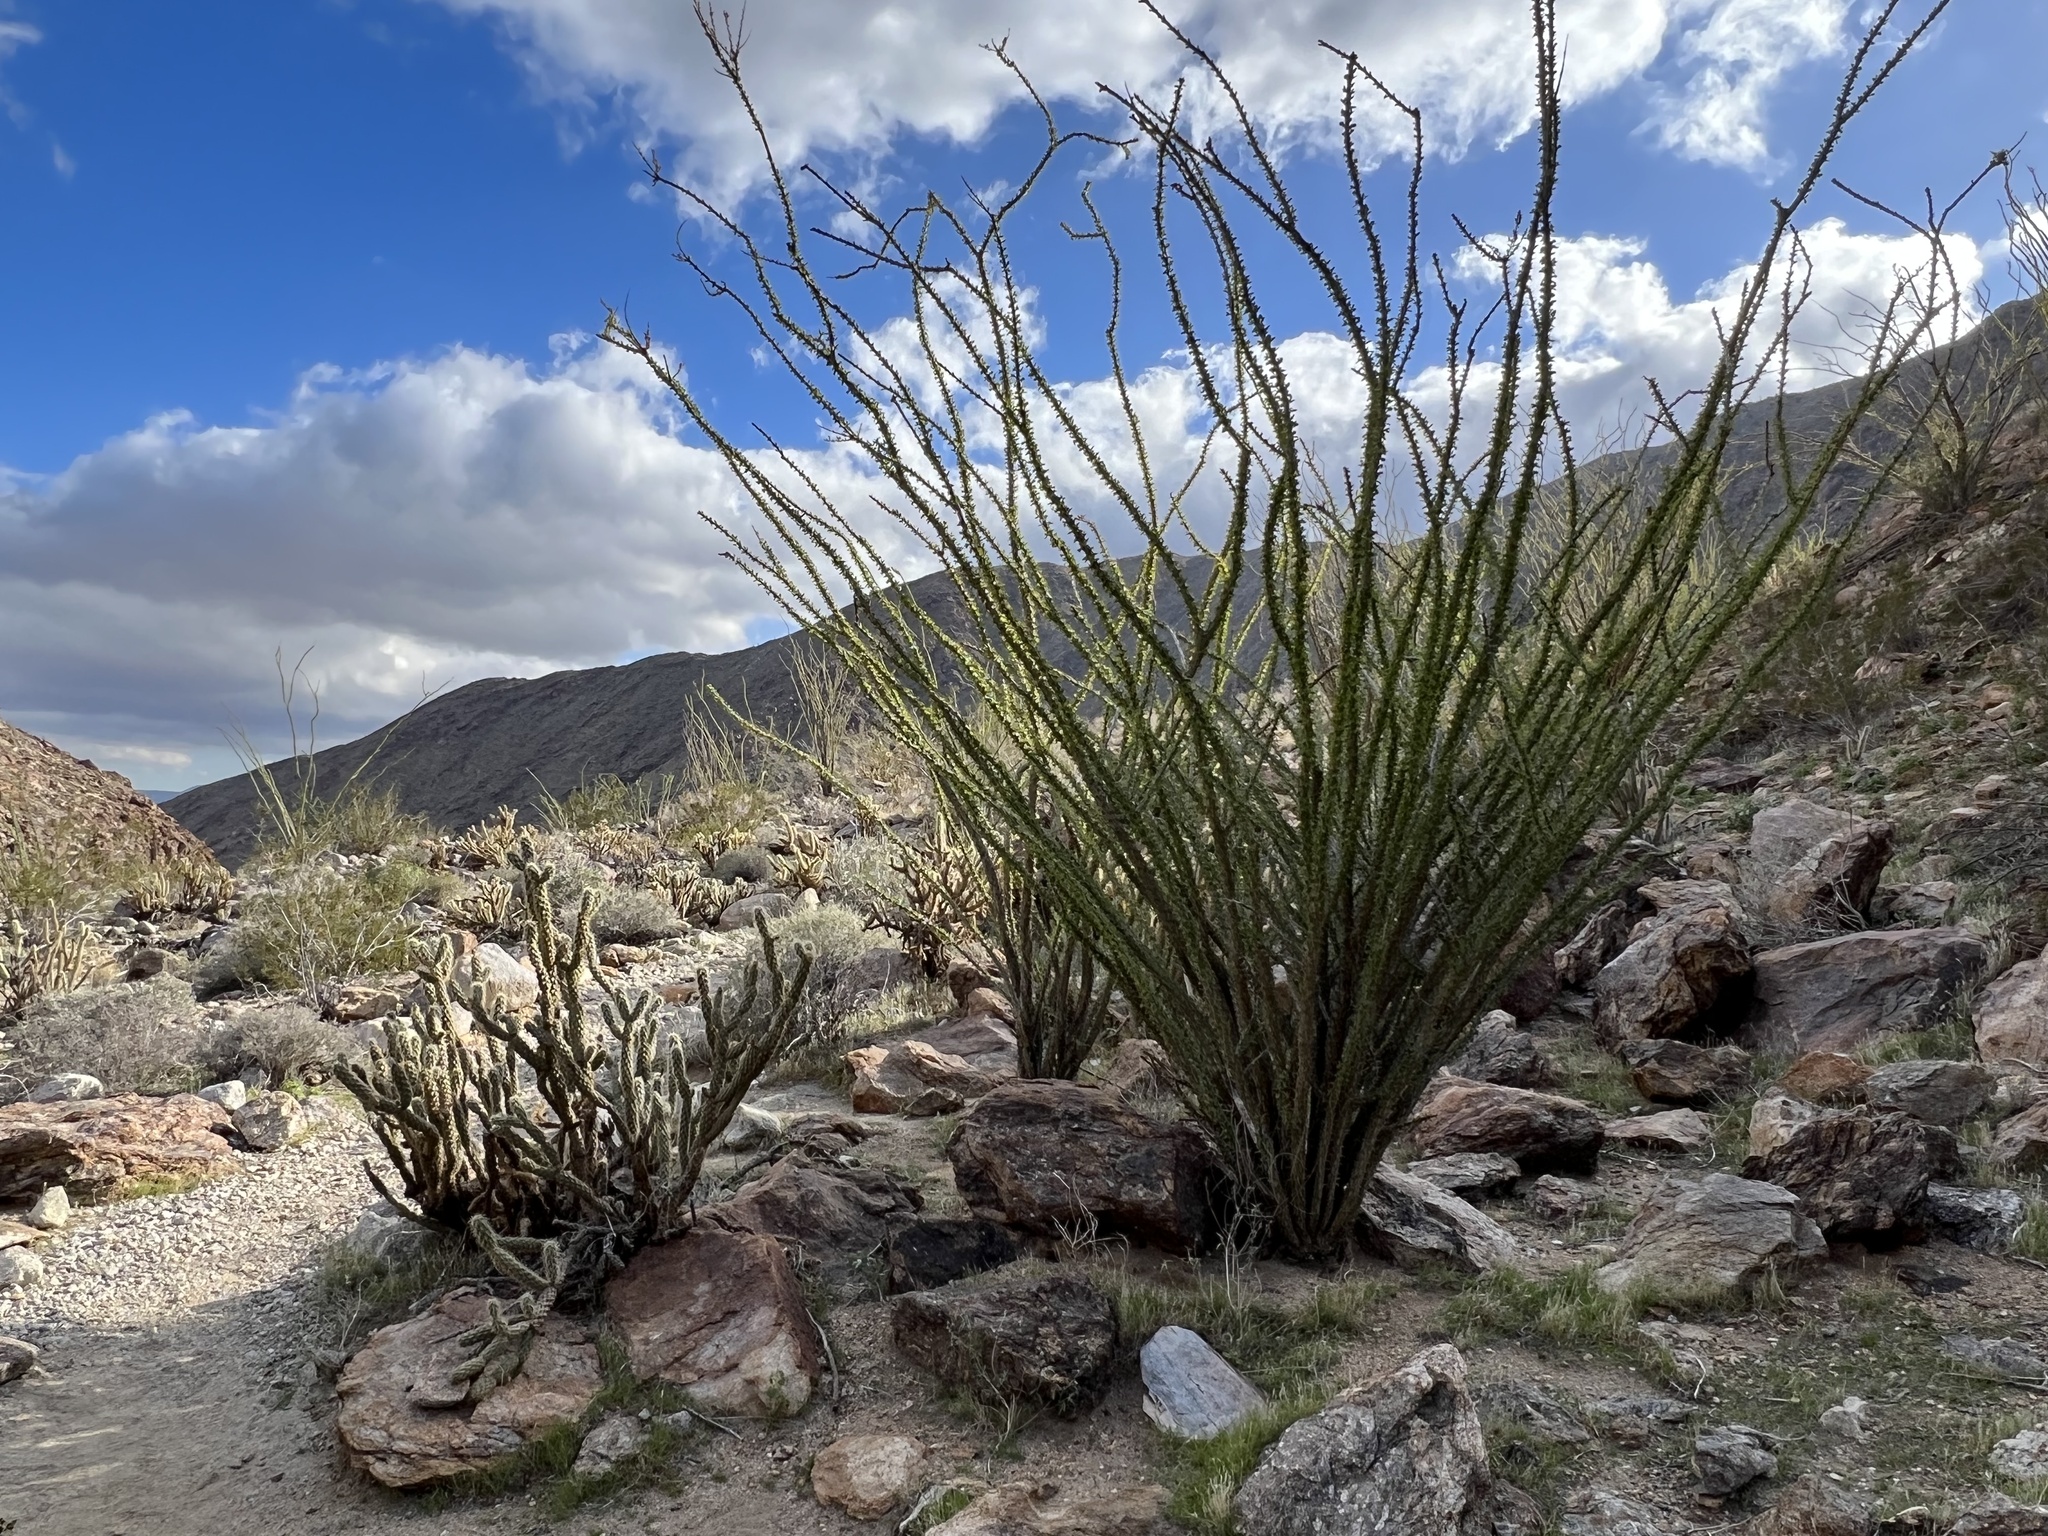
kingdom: Plantae
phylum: Tracheophyta
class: Magnoliopsida
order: Ericales
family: Fouquieriaceae
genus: Fouquieria
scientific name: Fouquieria splendens
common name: Vine-cactus
